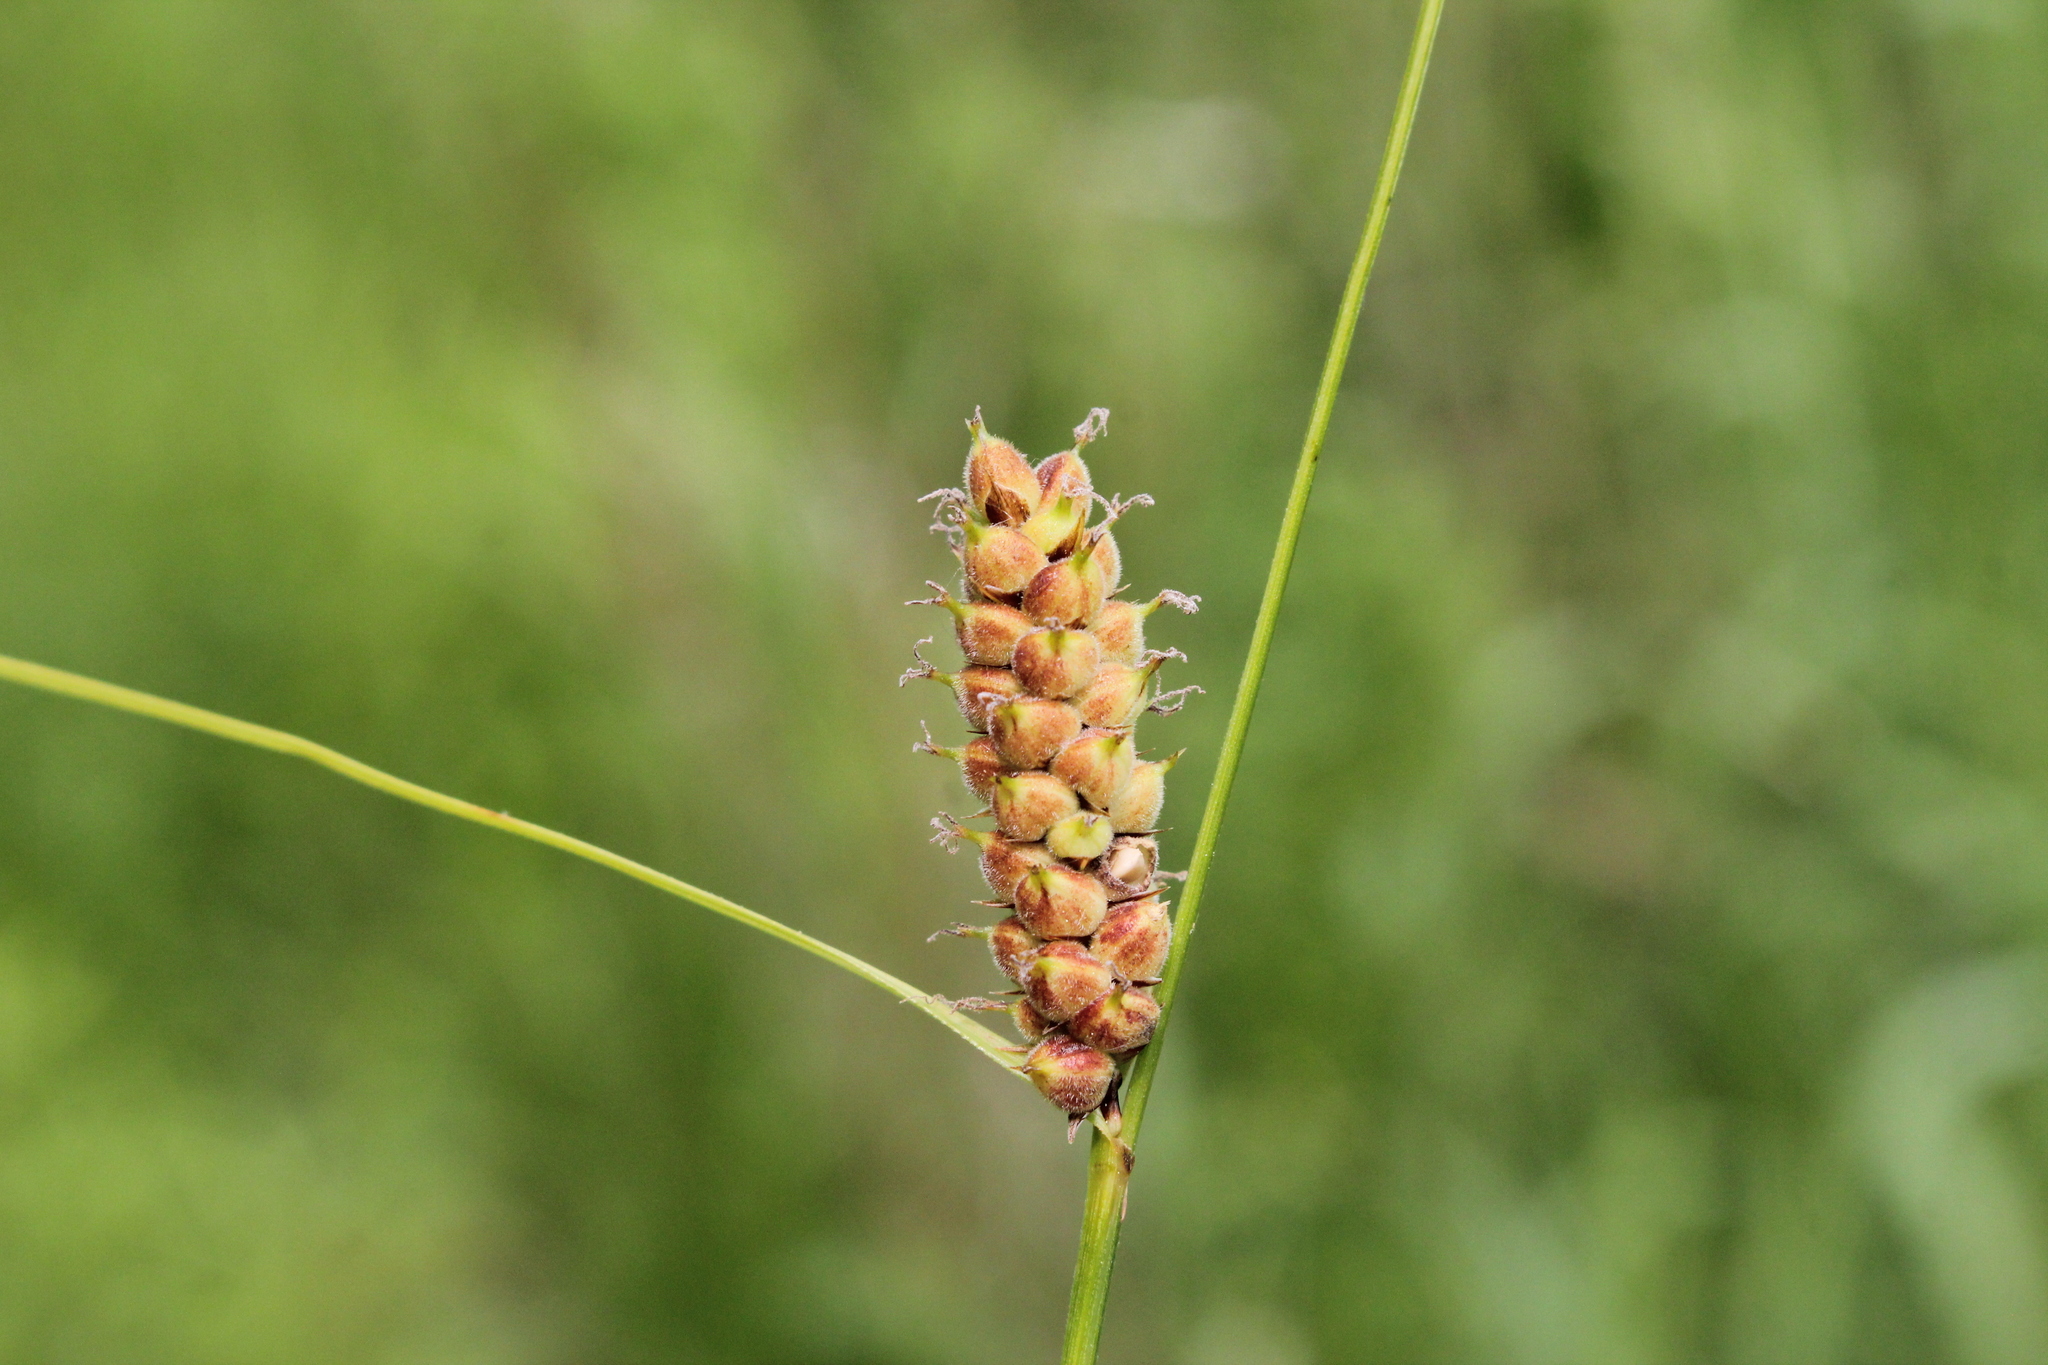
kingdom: Plantae
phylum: Tracheophyta
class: Liliopsida
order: Poales
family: Cyperaceae
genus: Carex
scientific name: Carex pellita
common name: Woolly sedge
